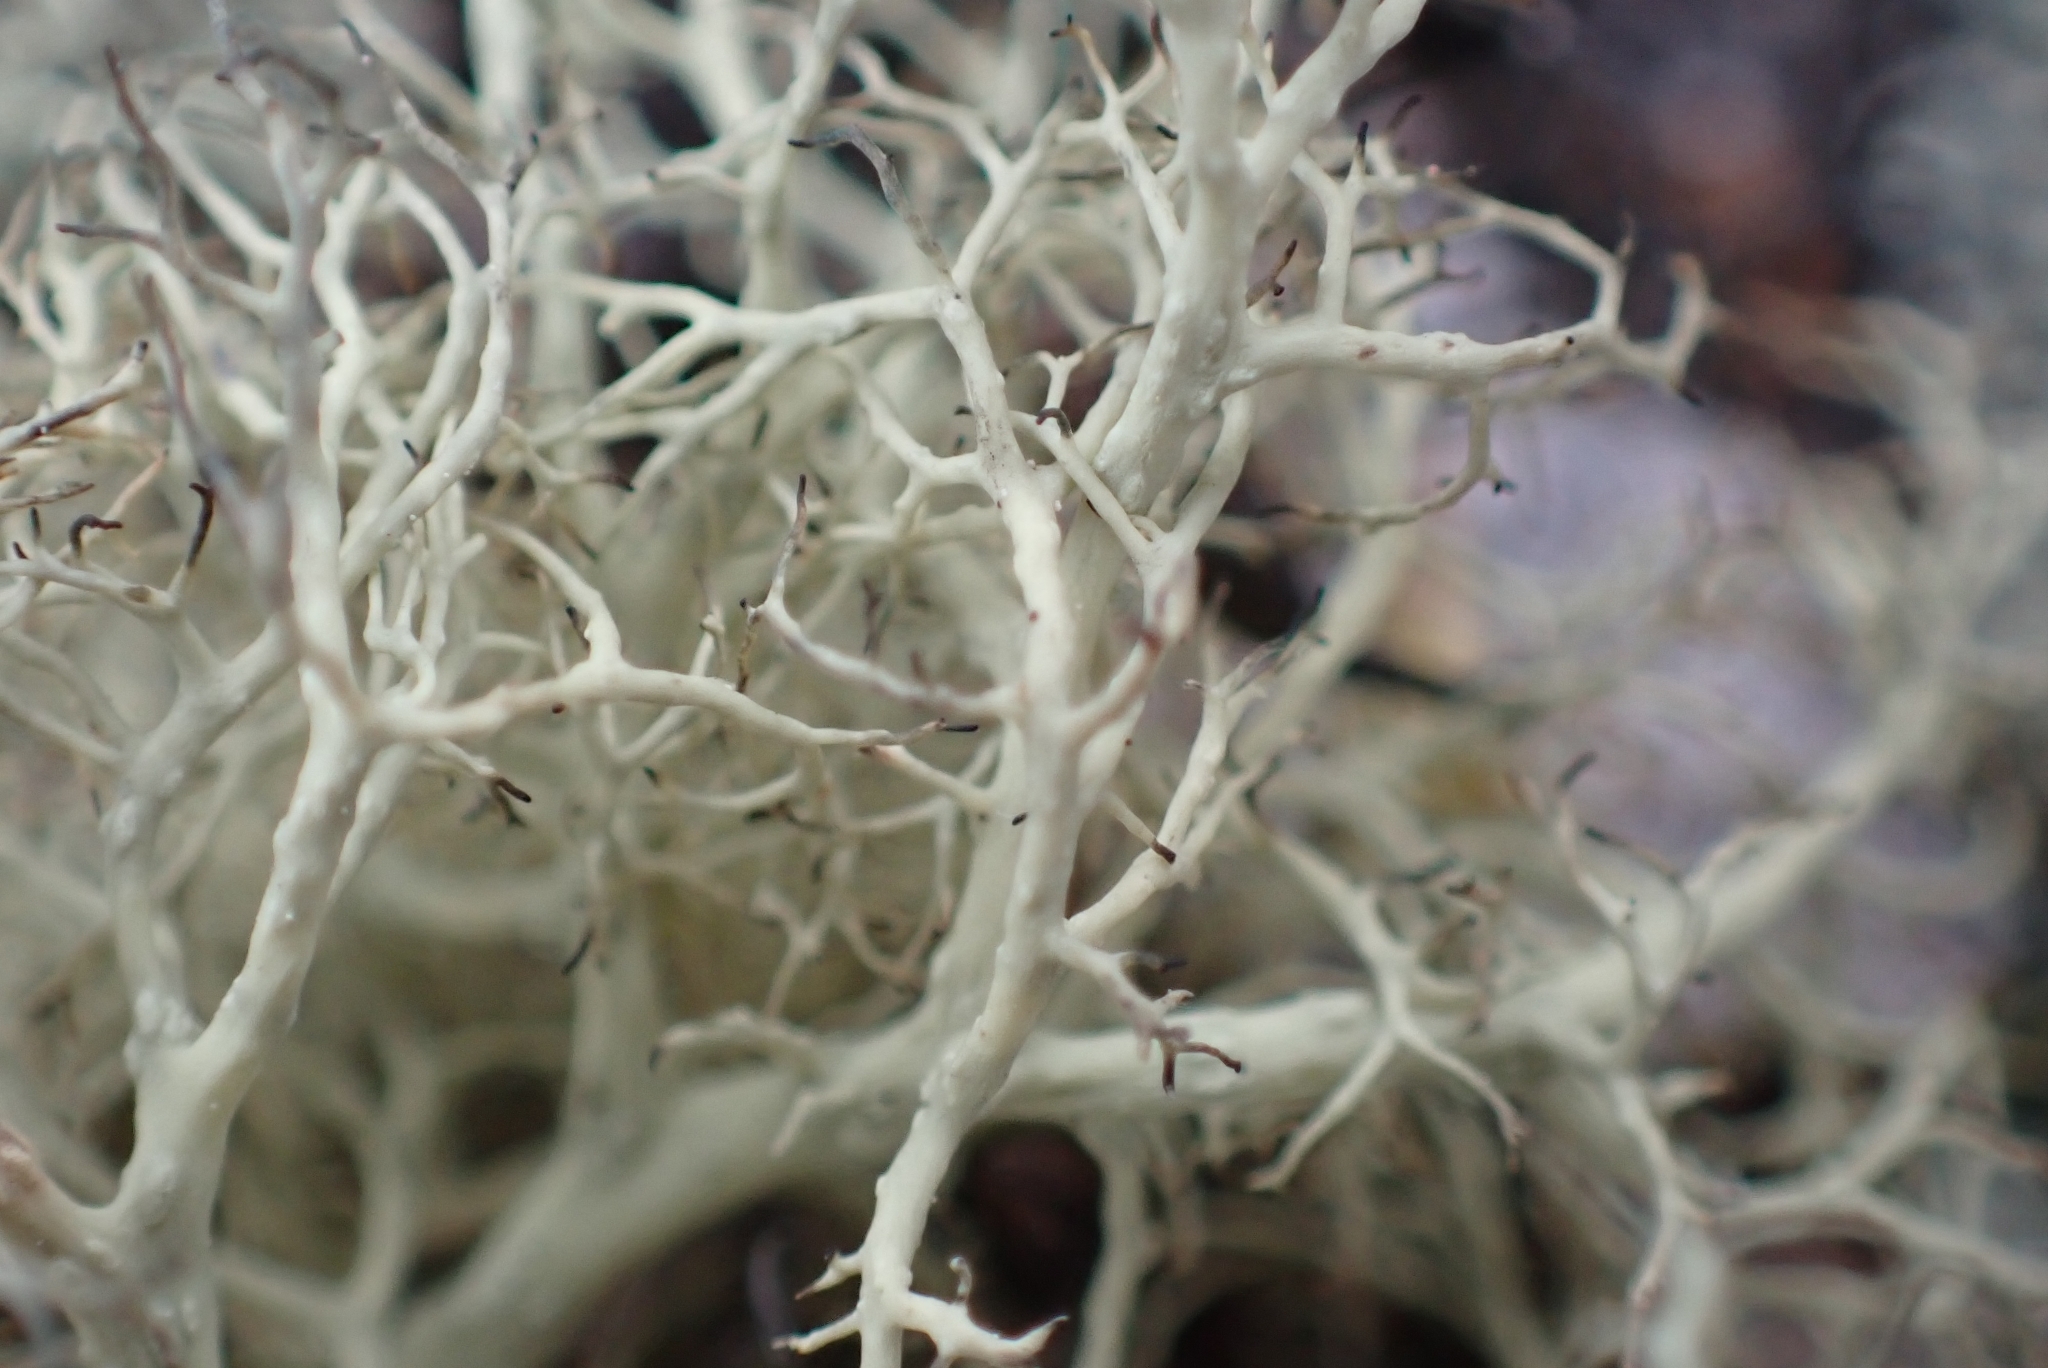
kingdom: Fungi
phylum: Ascomycota
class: Lecanoromycetes
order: Lecanorales
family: Parmeliaceae
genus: Alectoria
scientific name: Alectoria ochroleuca
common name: Alpine sulphur-tresses
